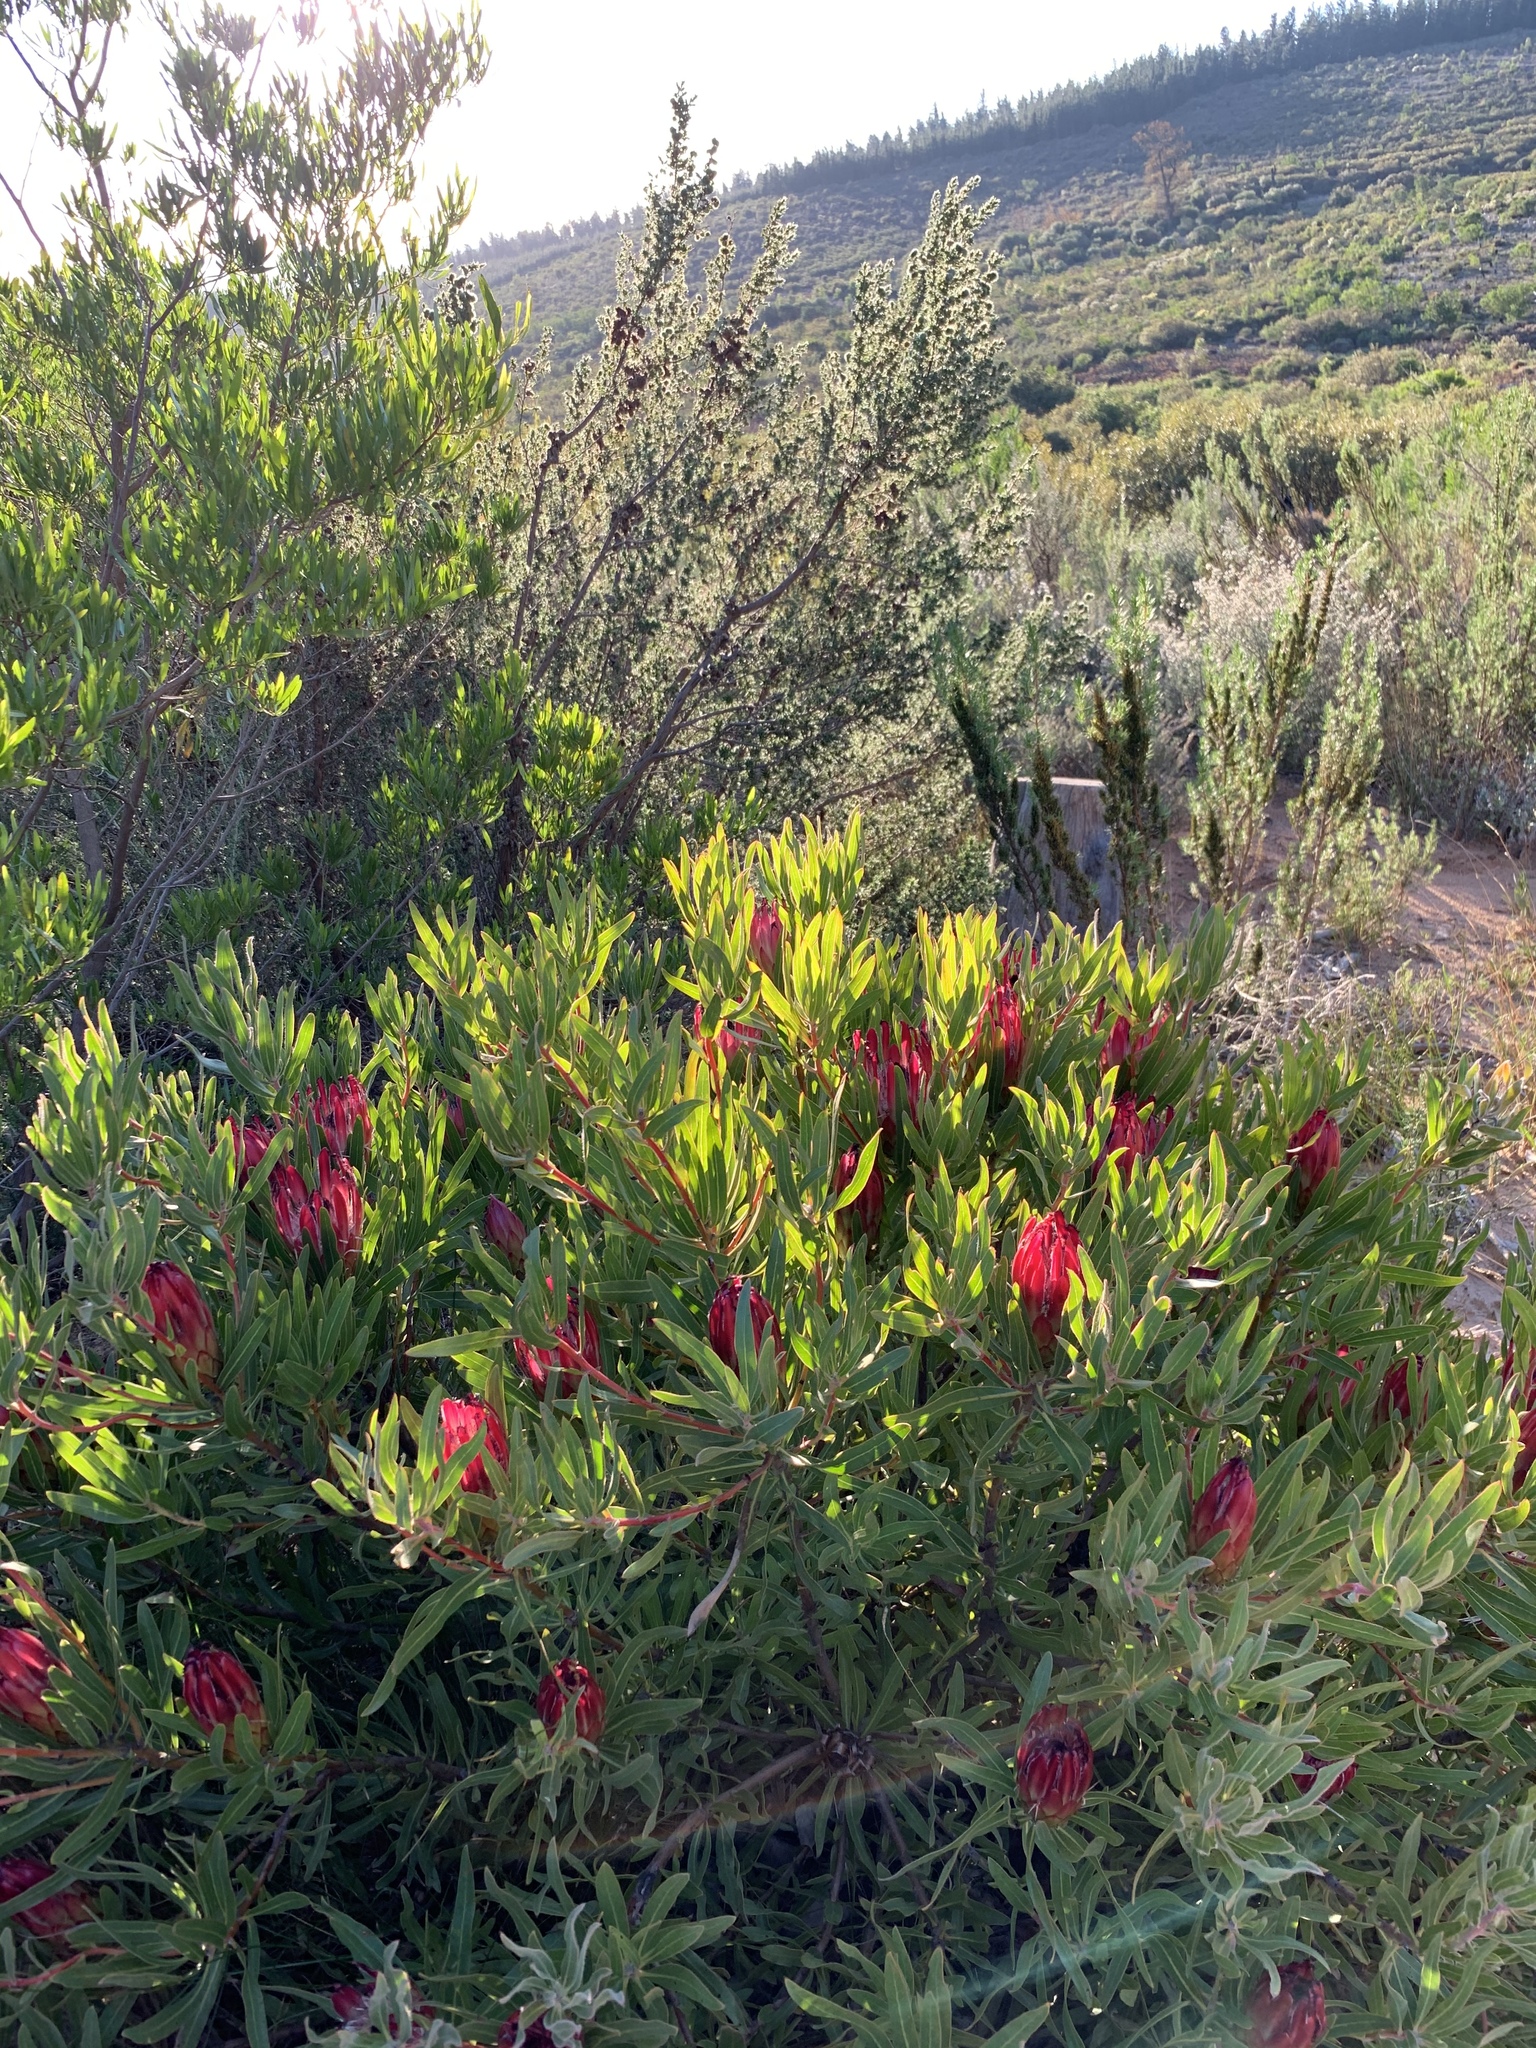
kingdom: Plantae
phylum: Tracheophyta
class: Magnoliopsida
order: Proteales
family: Proteaceae
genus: Protea
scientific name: Protea burchellii
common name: Burchell's sugarbush
